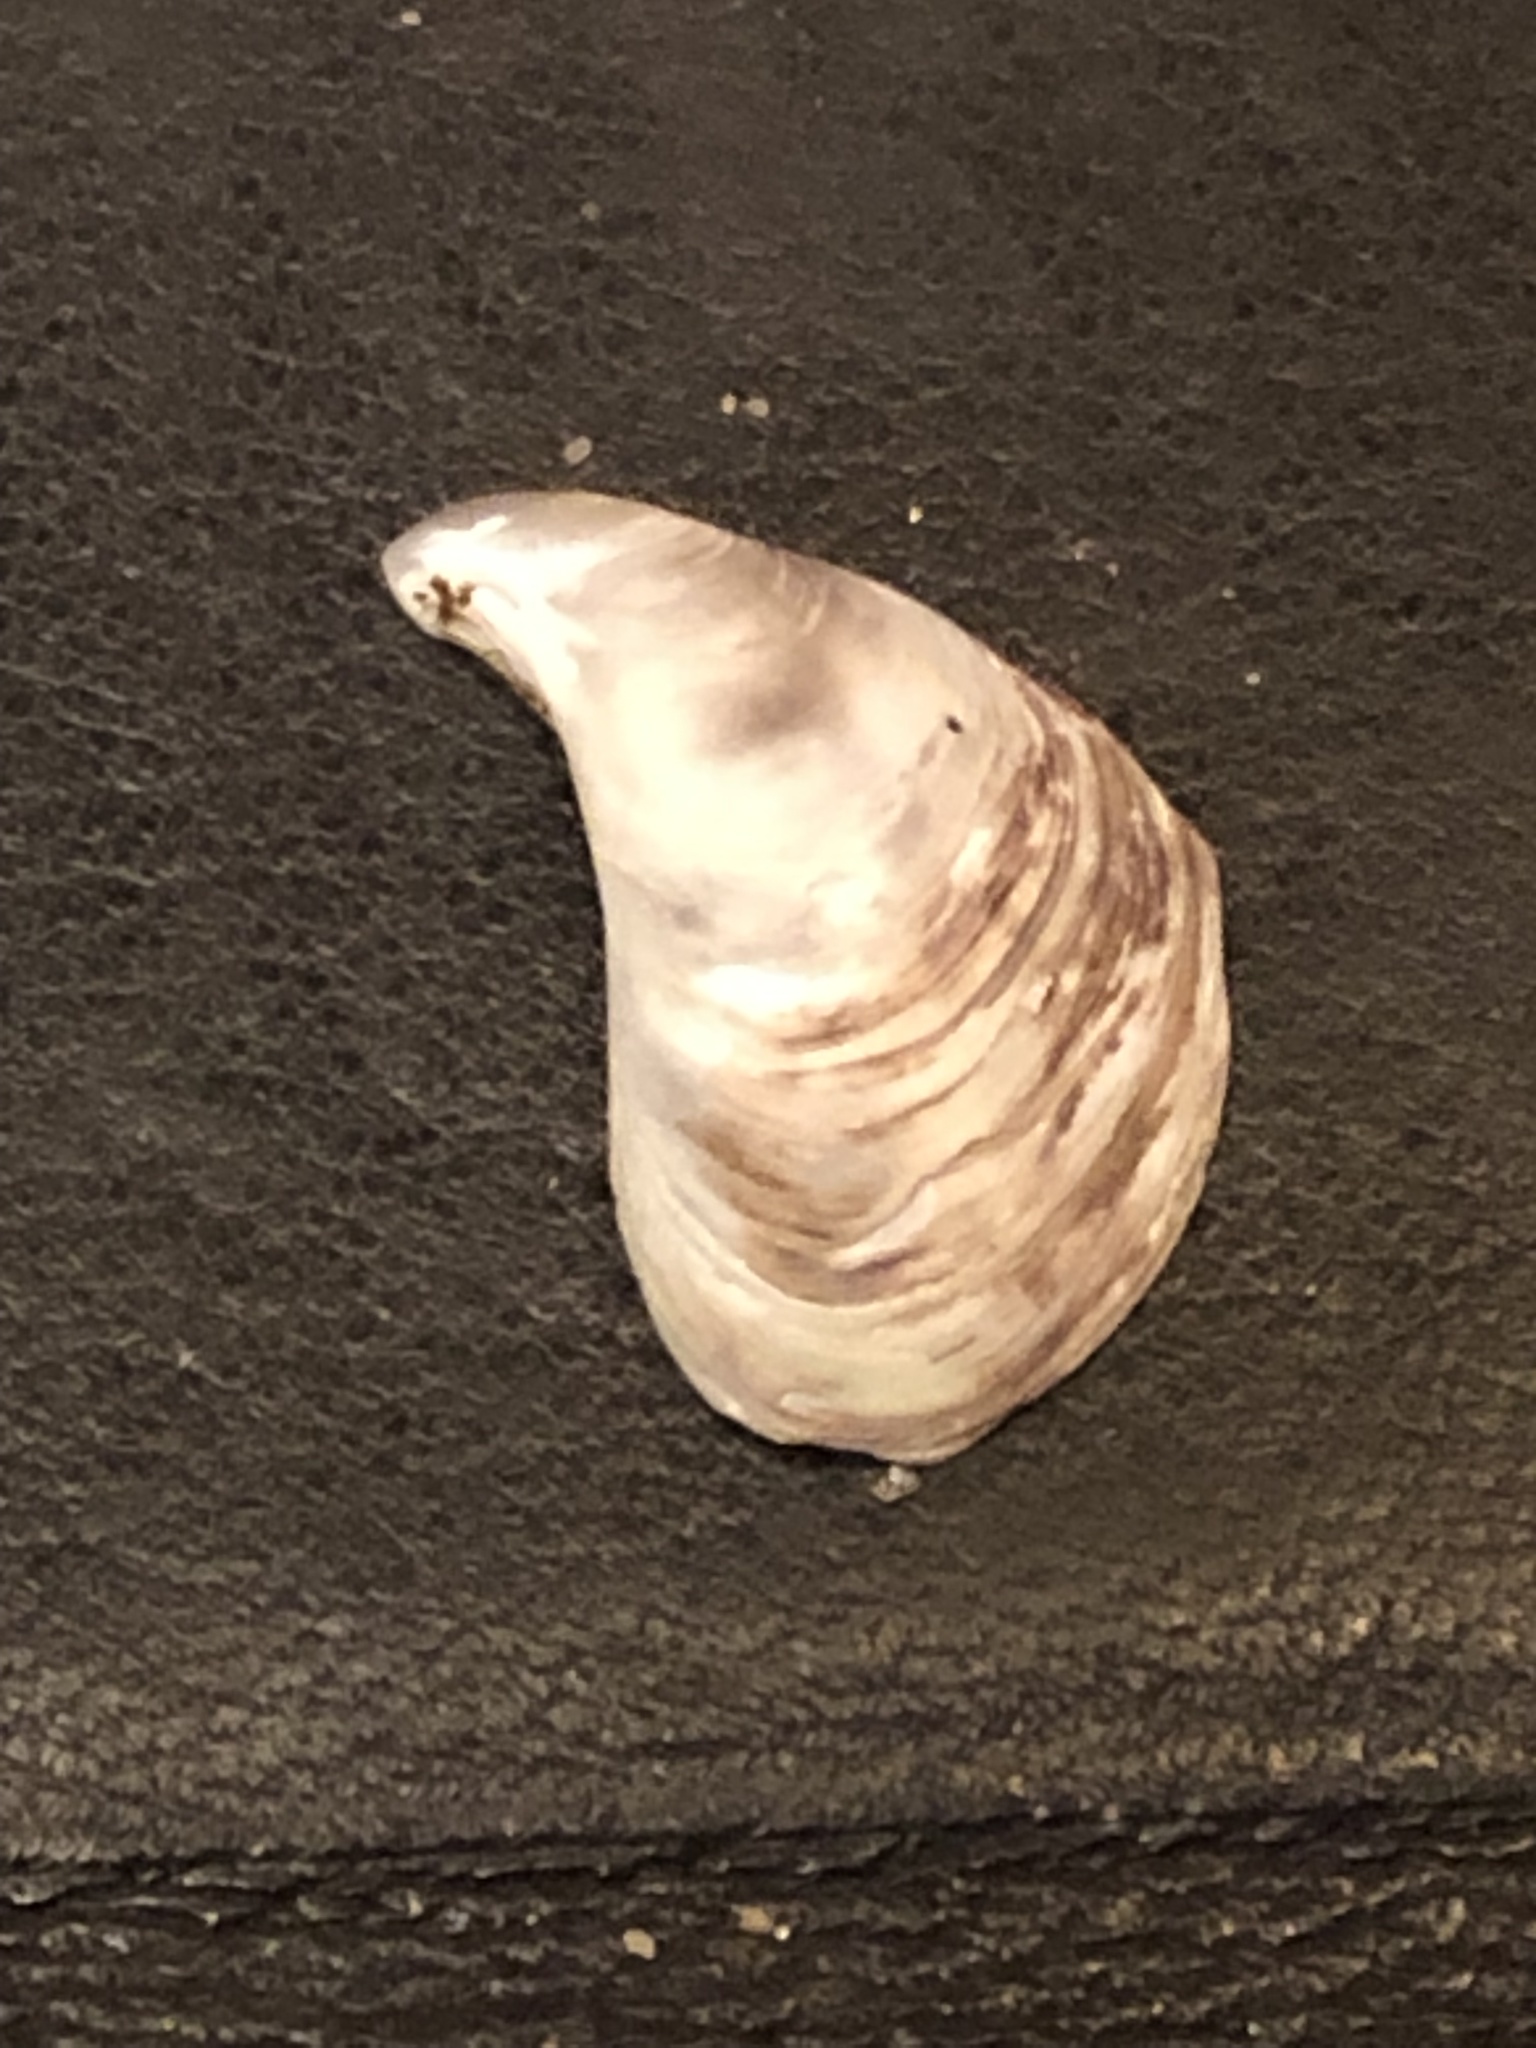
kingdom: Animalia
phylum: Mollusca
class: Bivalvia
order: Myida
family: Dreissenidae
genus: Dreissena
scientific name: Dreissena bugensis
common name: Quagga mussel
